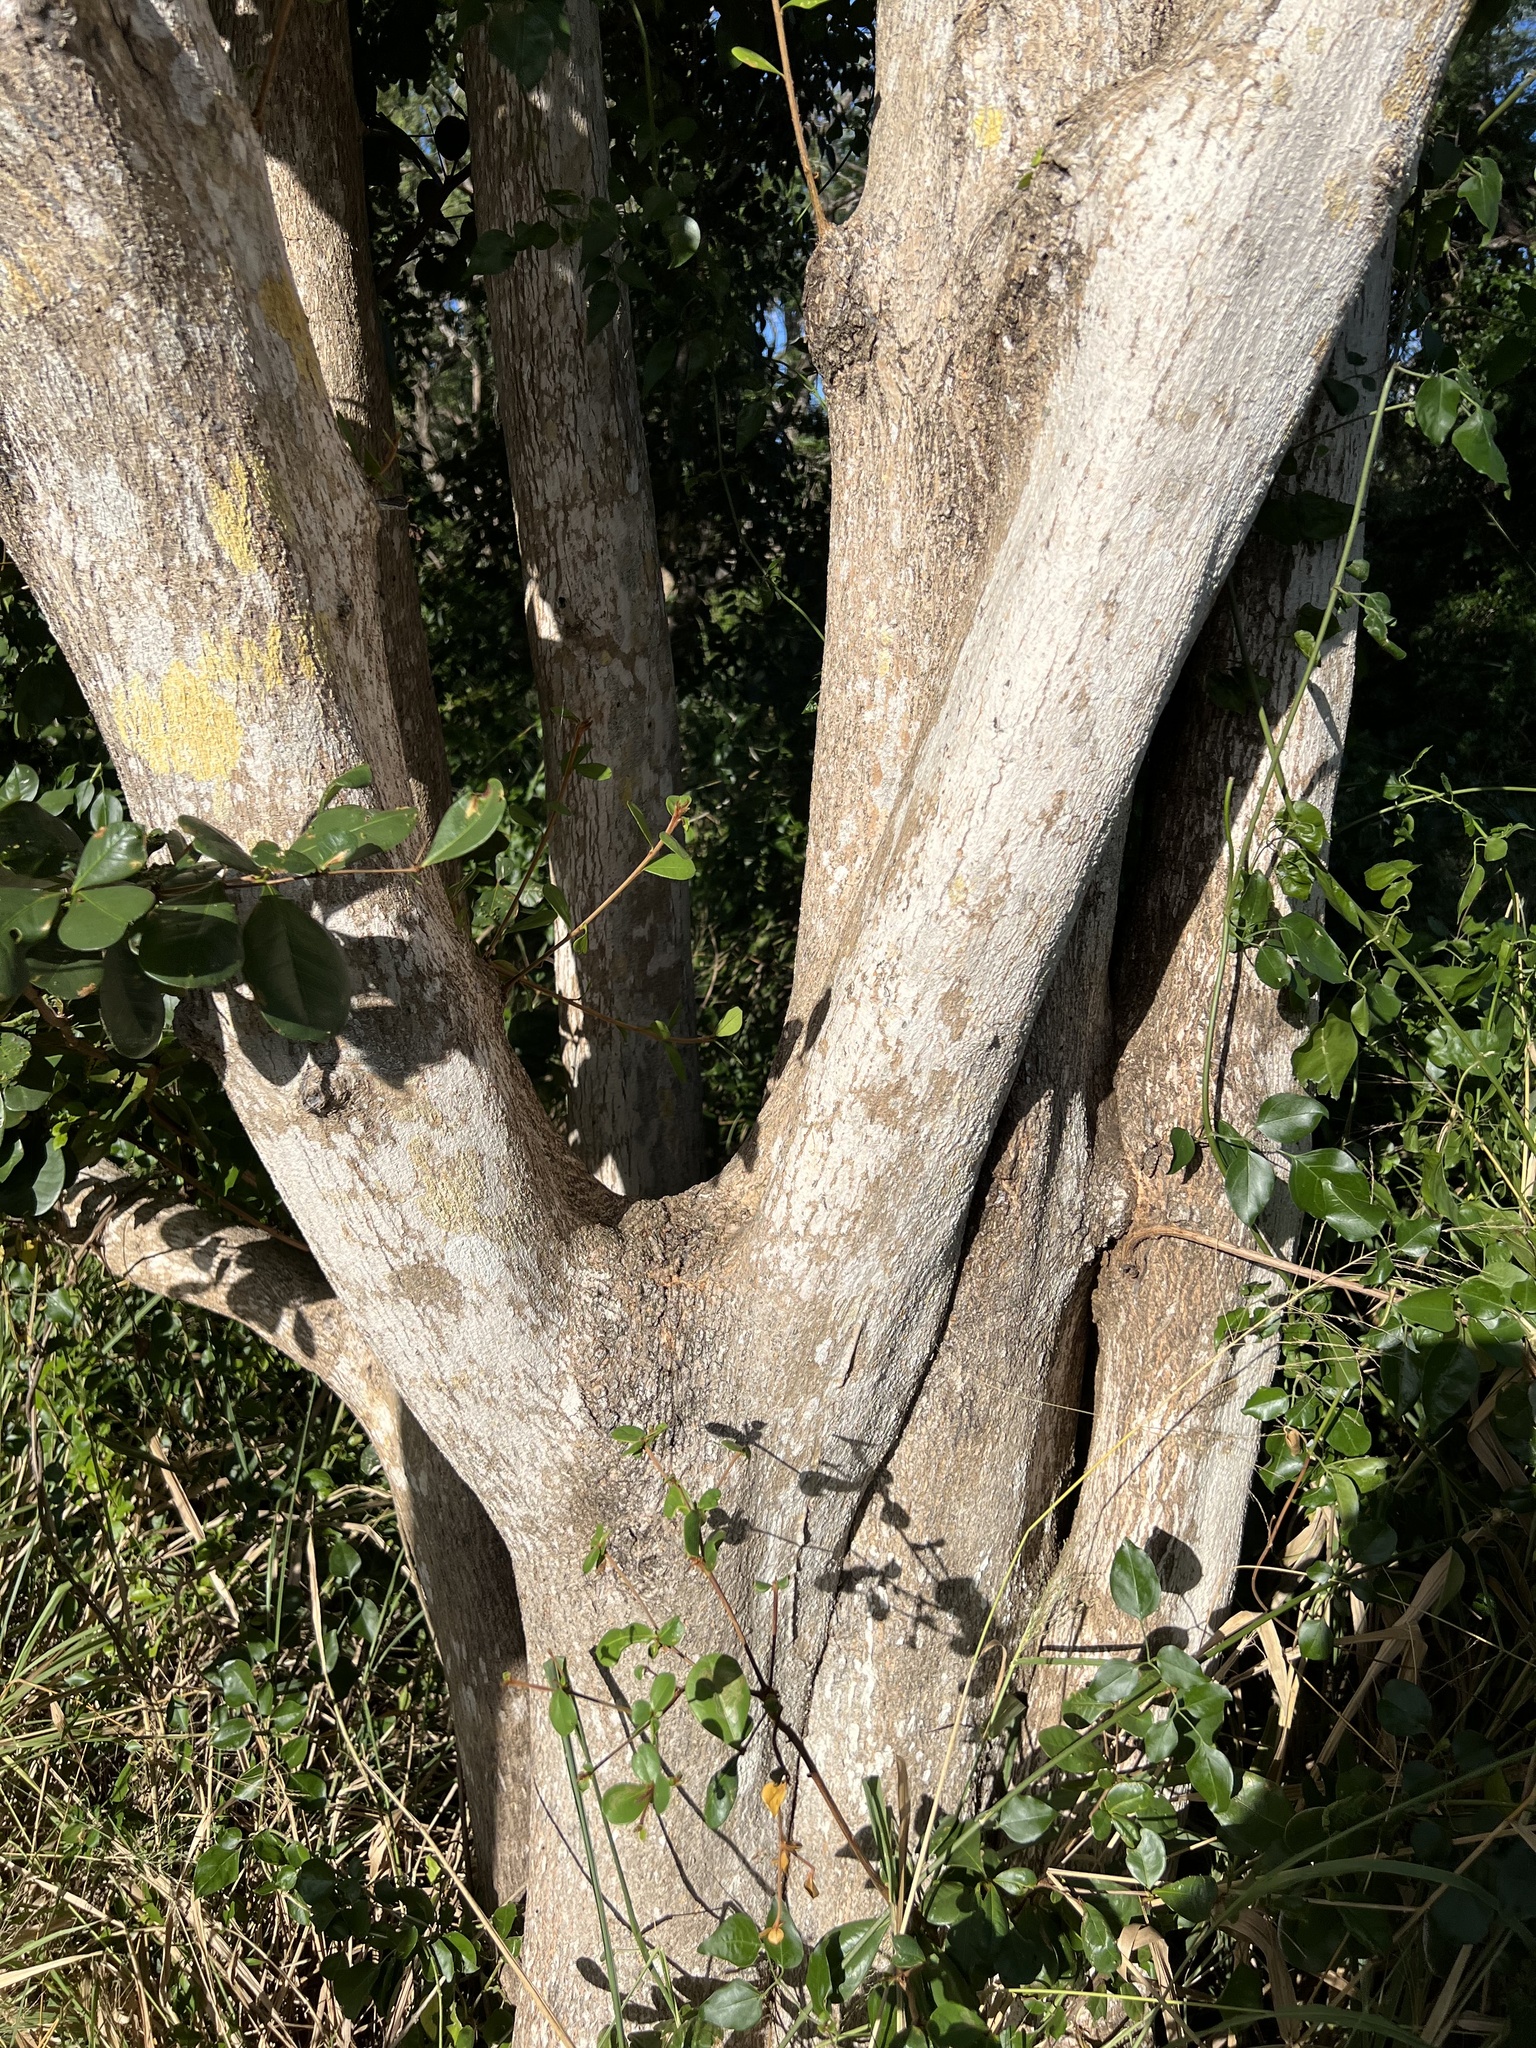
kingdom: Plantae
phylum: Tracheophyta
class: Magnoliopsida
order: Myrtales
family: Combretaceae
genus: Terminalia
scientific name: Terminalia buceras
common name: Black-olive
